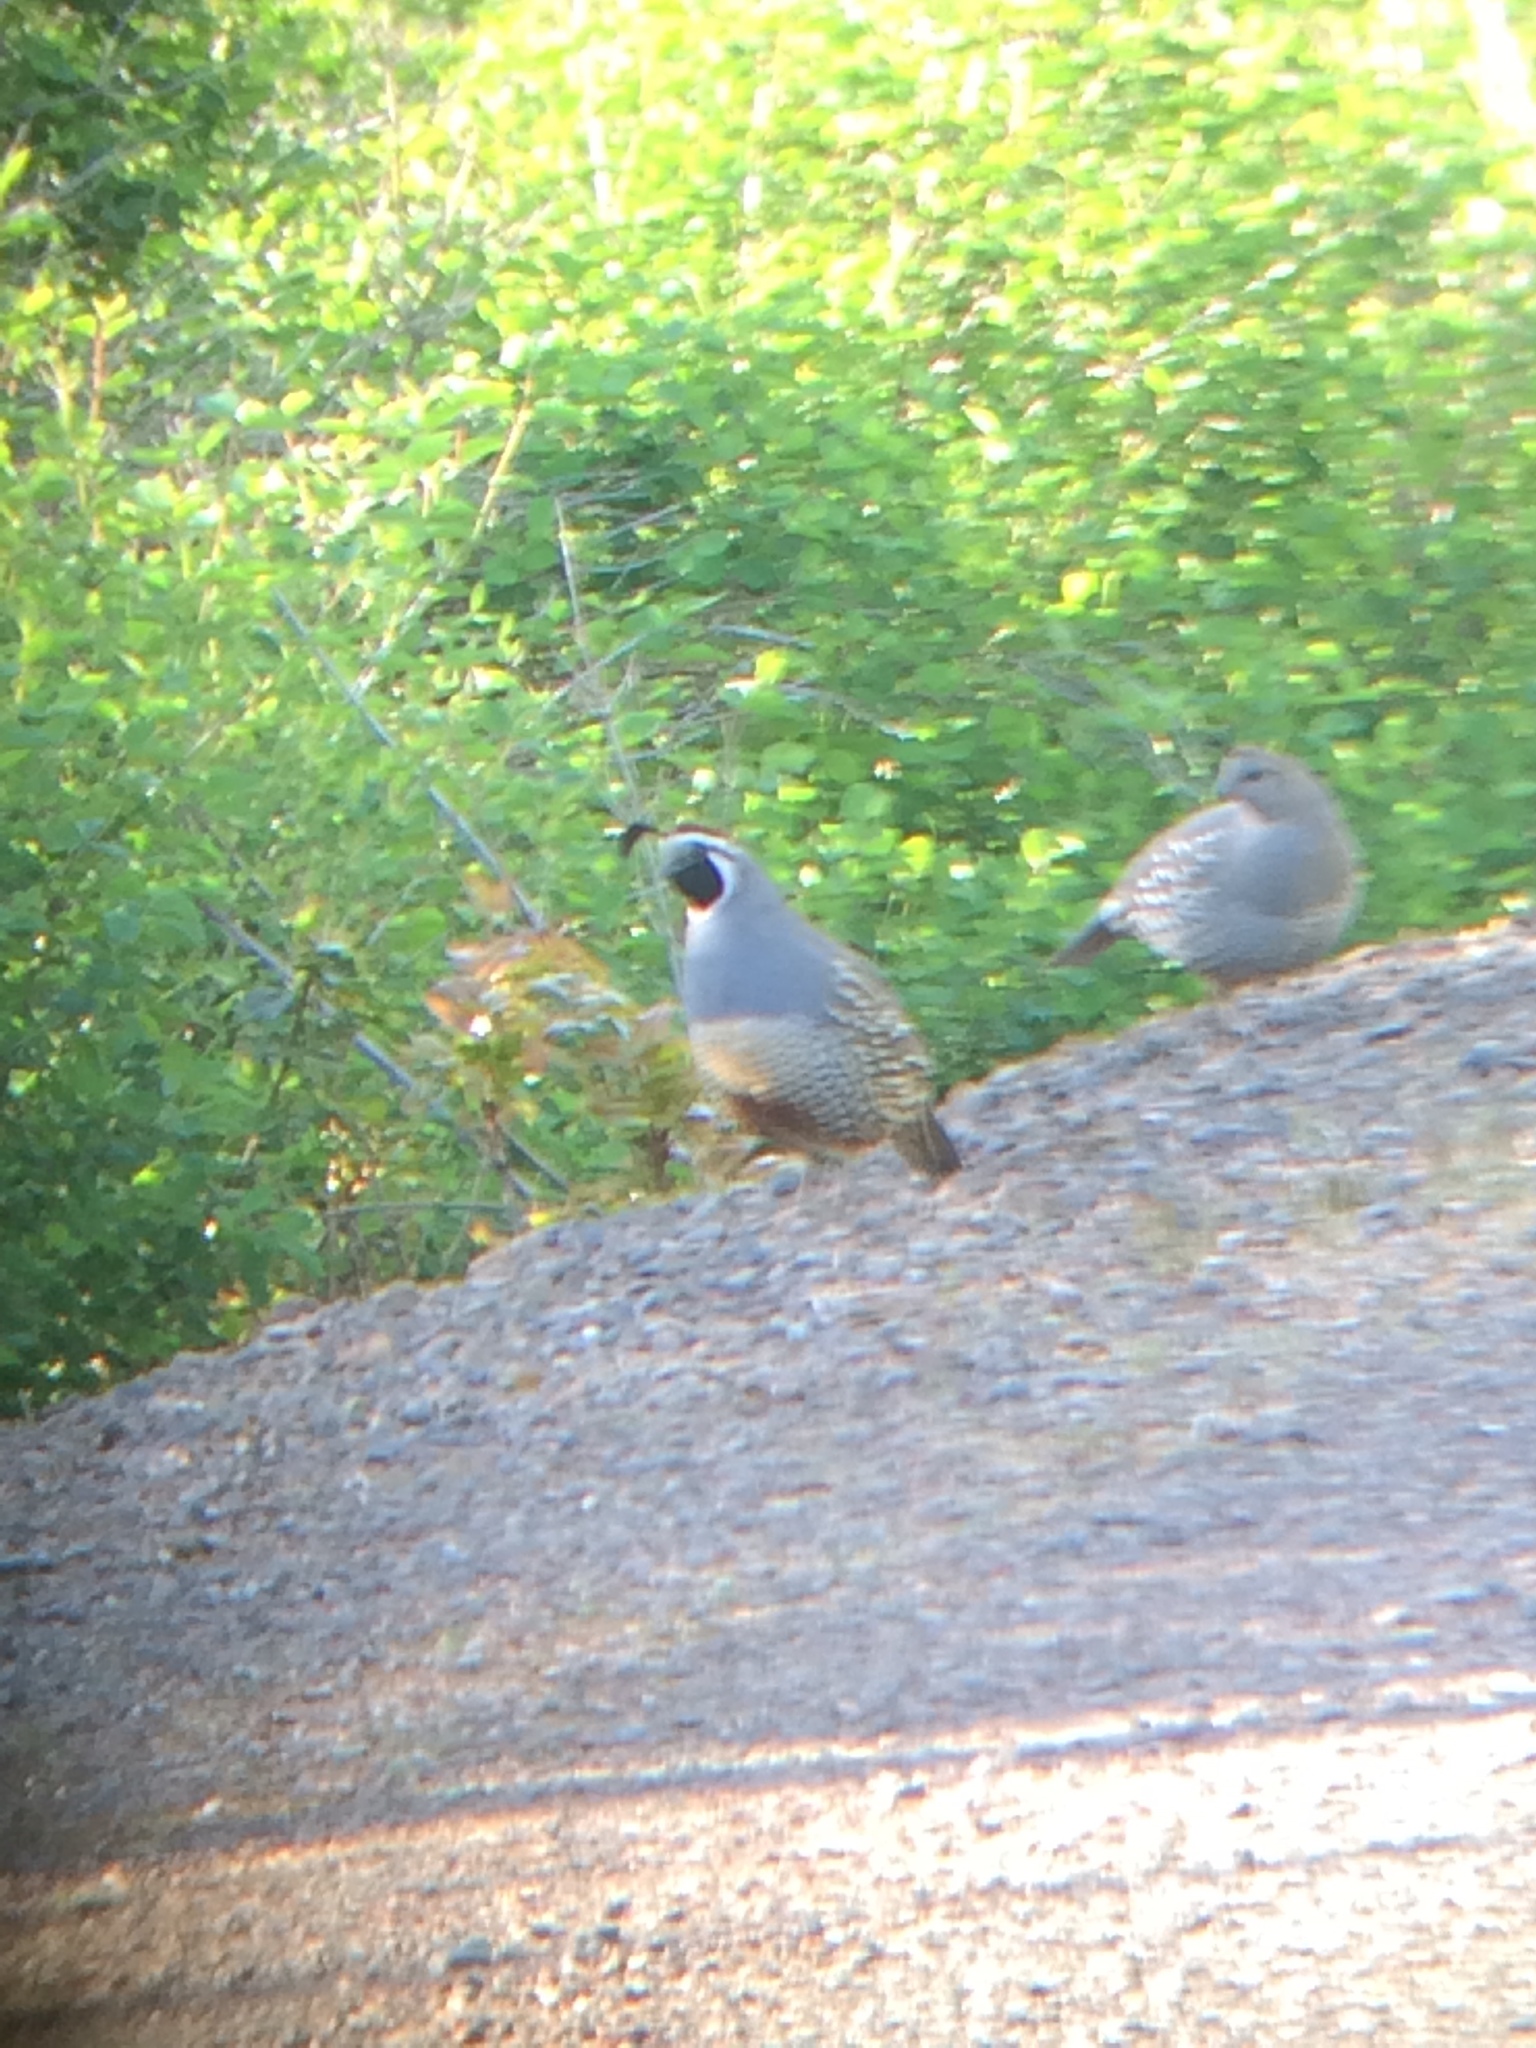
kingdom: Animalia
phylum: Chordata
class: Aves
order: Galliformes
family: Odontophoridae
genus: Callipepla
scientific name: Callipepla californica
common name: California quail
